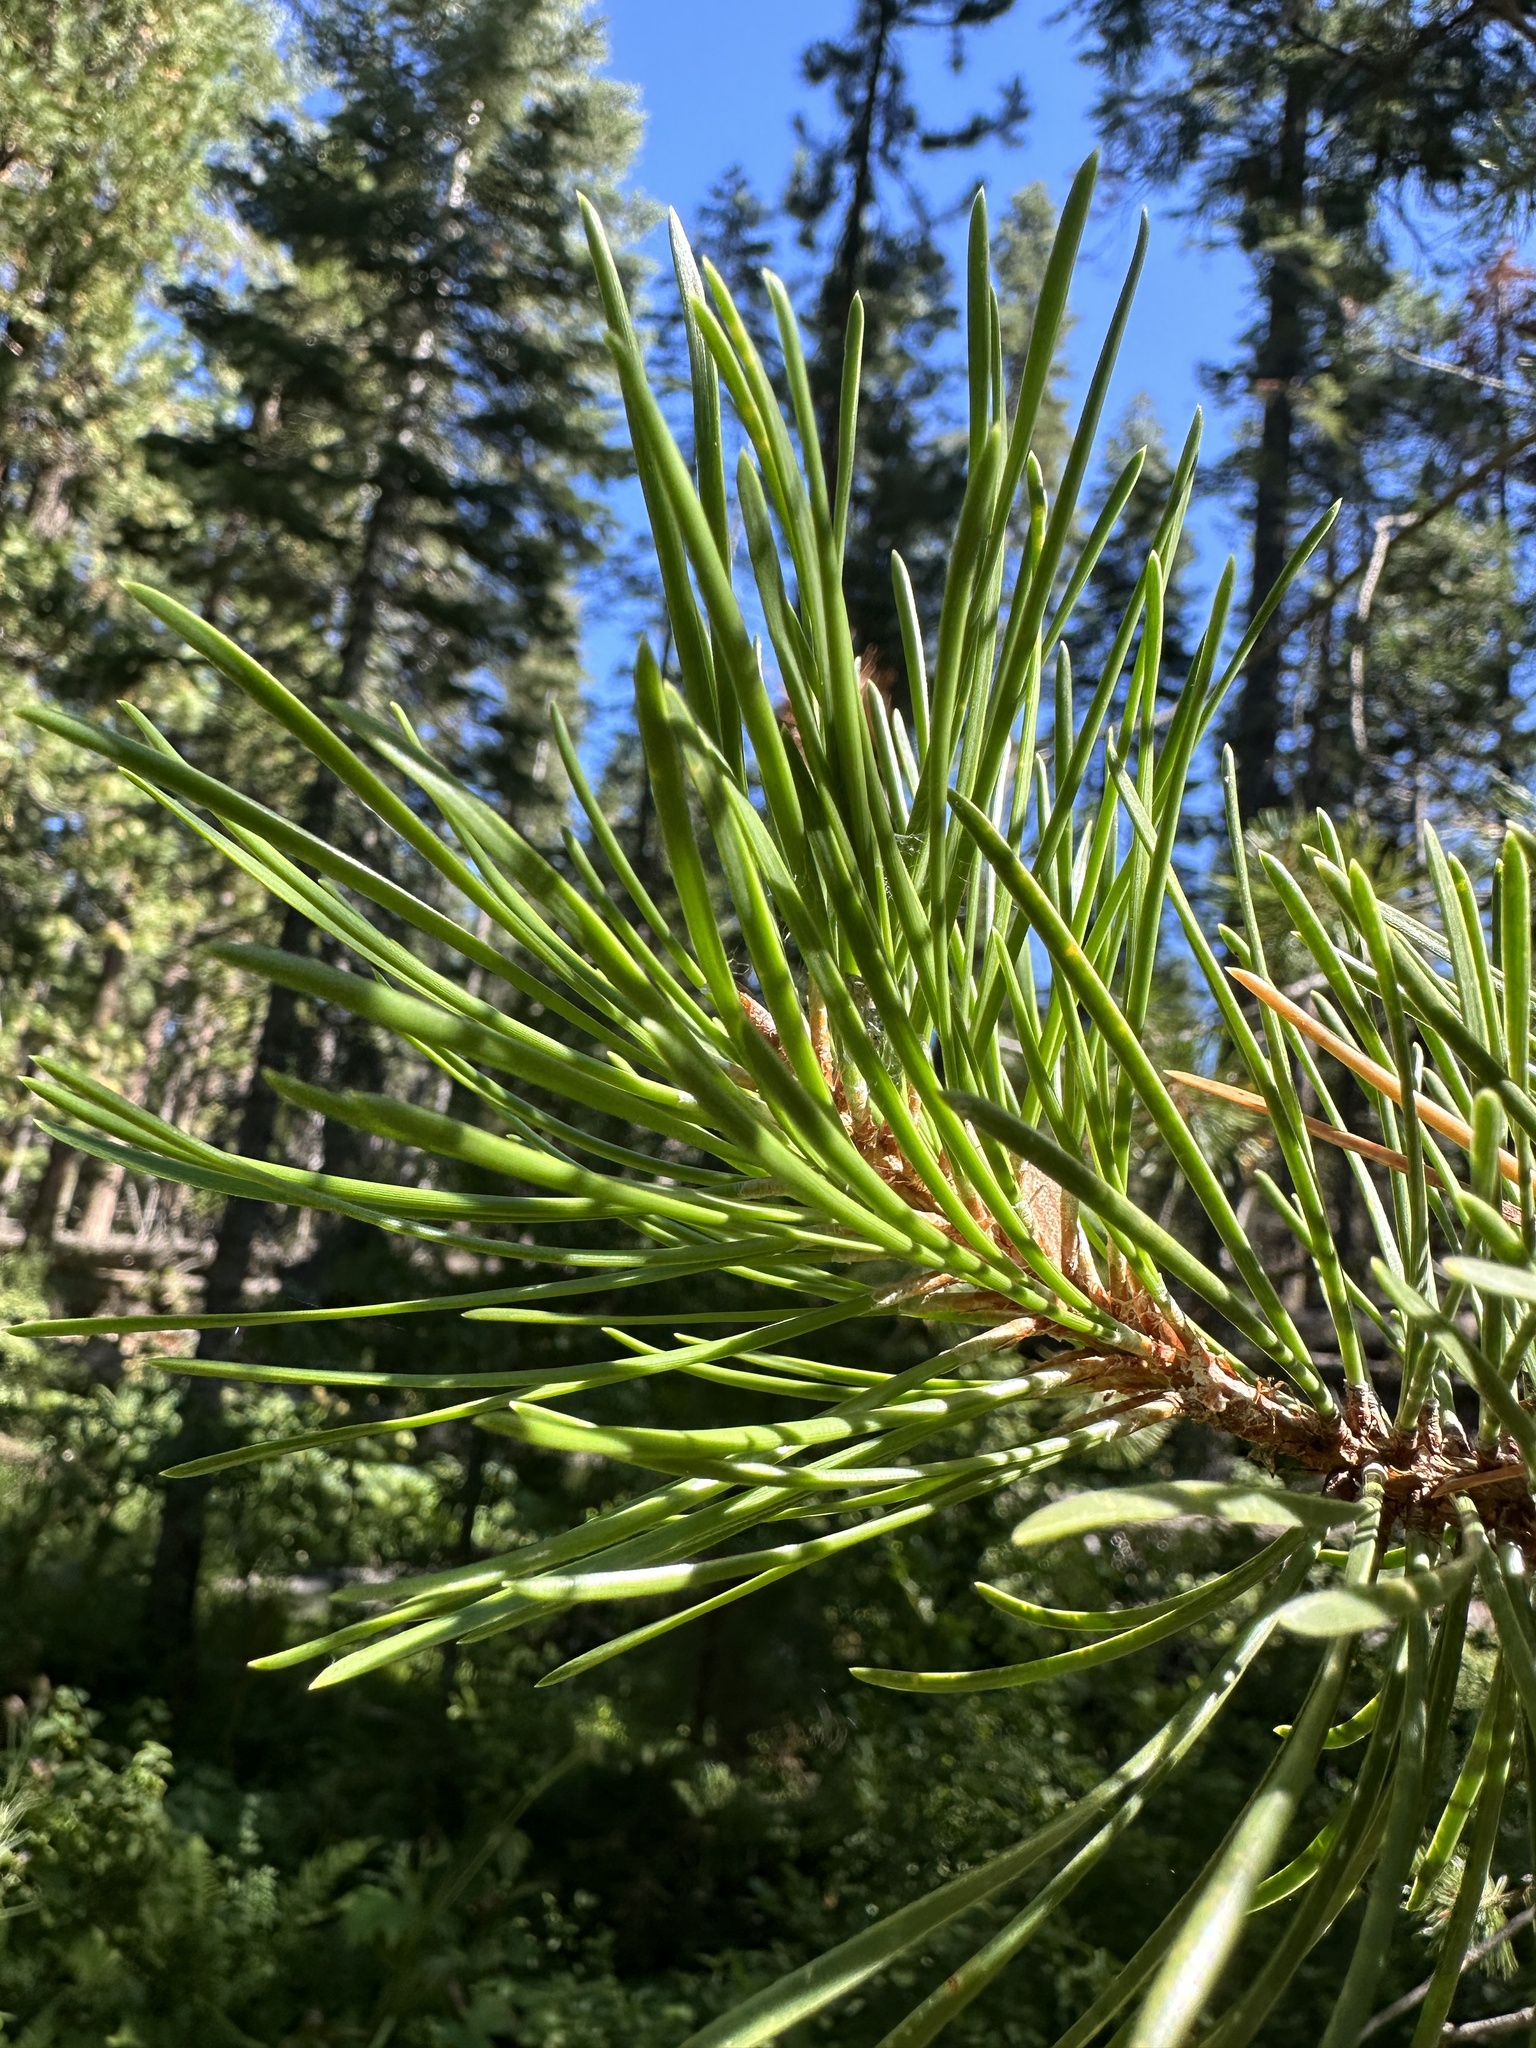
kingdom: Plantae
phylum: Tracheophyta
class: Pinopsida
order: Pinales
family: Pinaceae
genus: Pinus
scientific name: Pinus contorta
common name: Lodgepole pine
